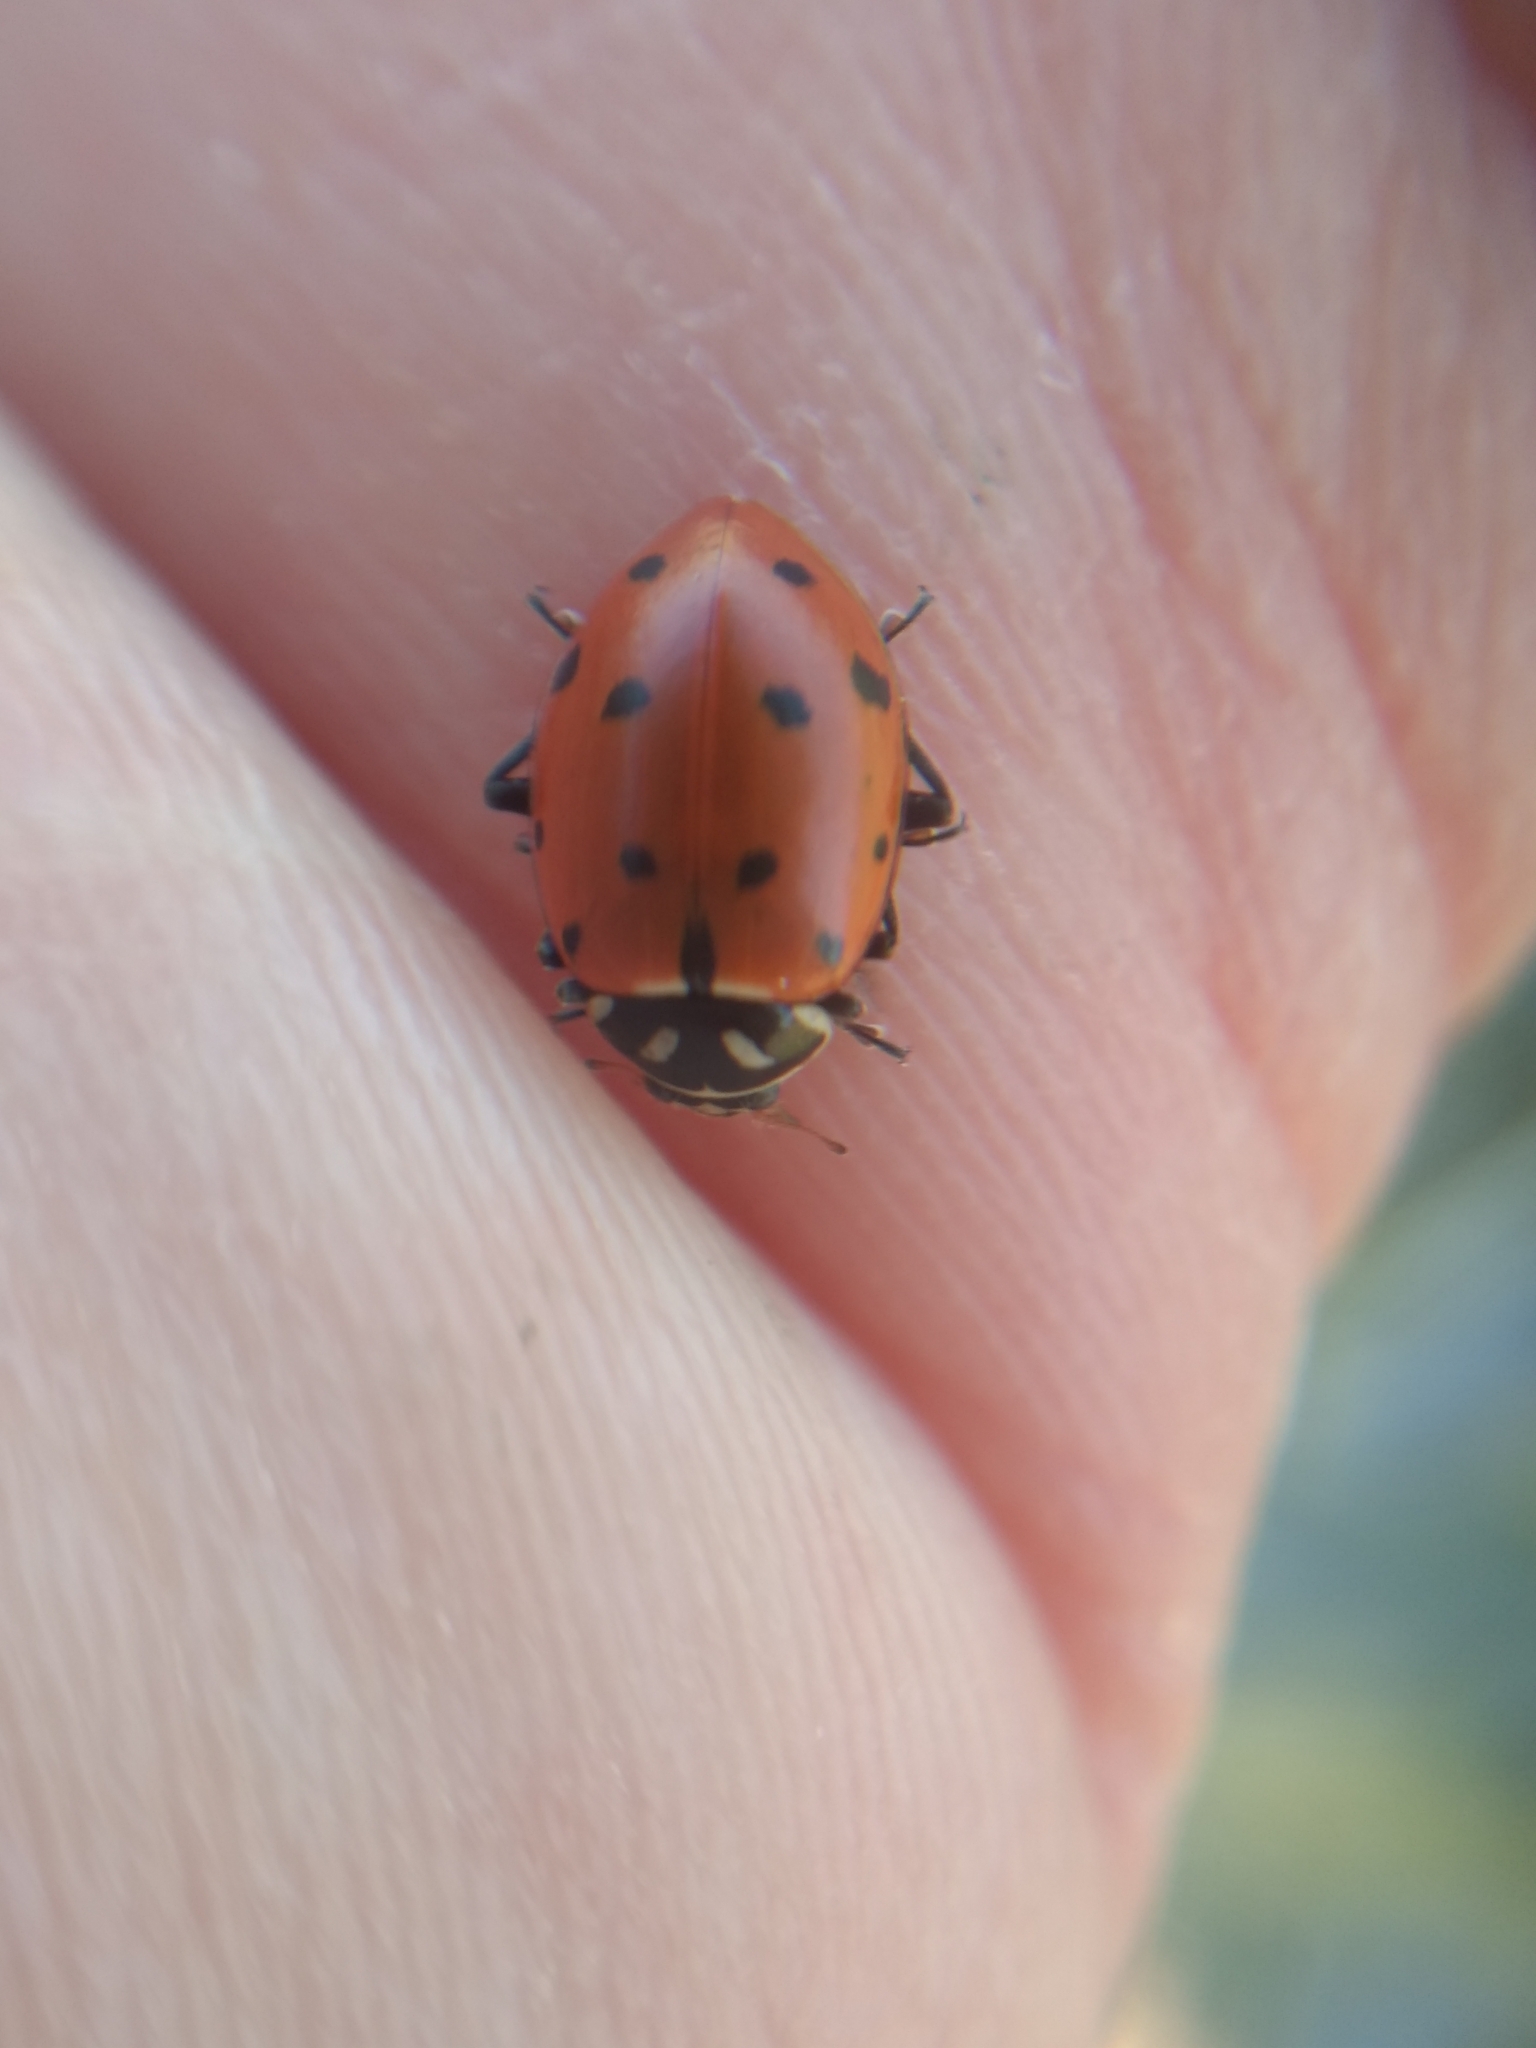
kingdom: Animalia
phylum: Arthropoda
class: Insecta
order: Coleoptera
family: Coccinellidae
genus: Hippodamia
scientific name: Hippodamia convergens
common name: Convergent lady beetle
